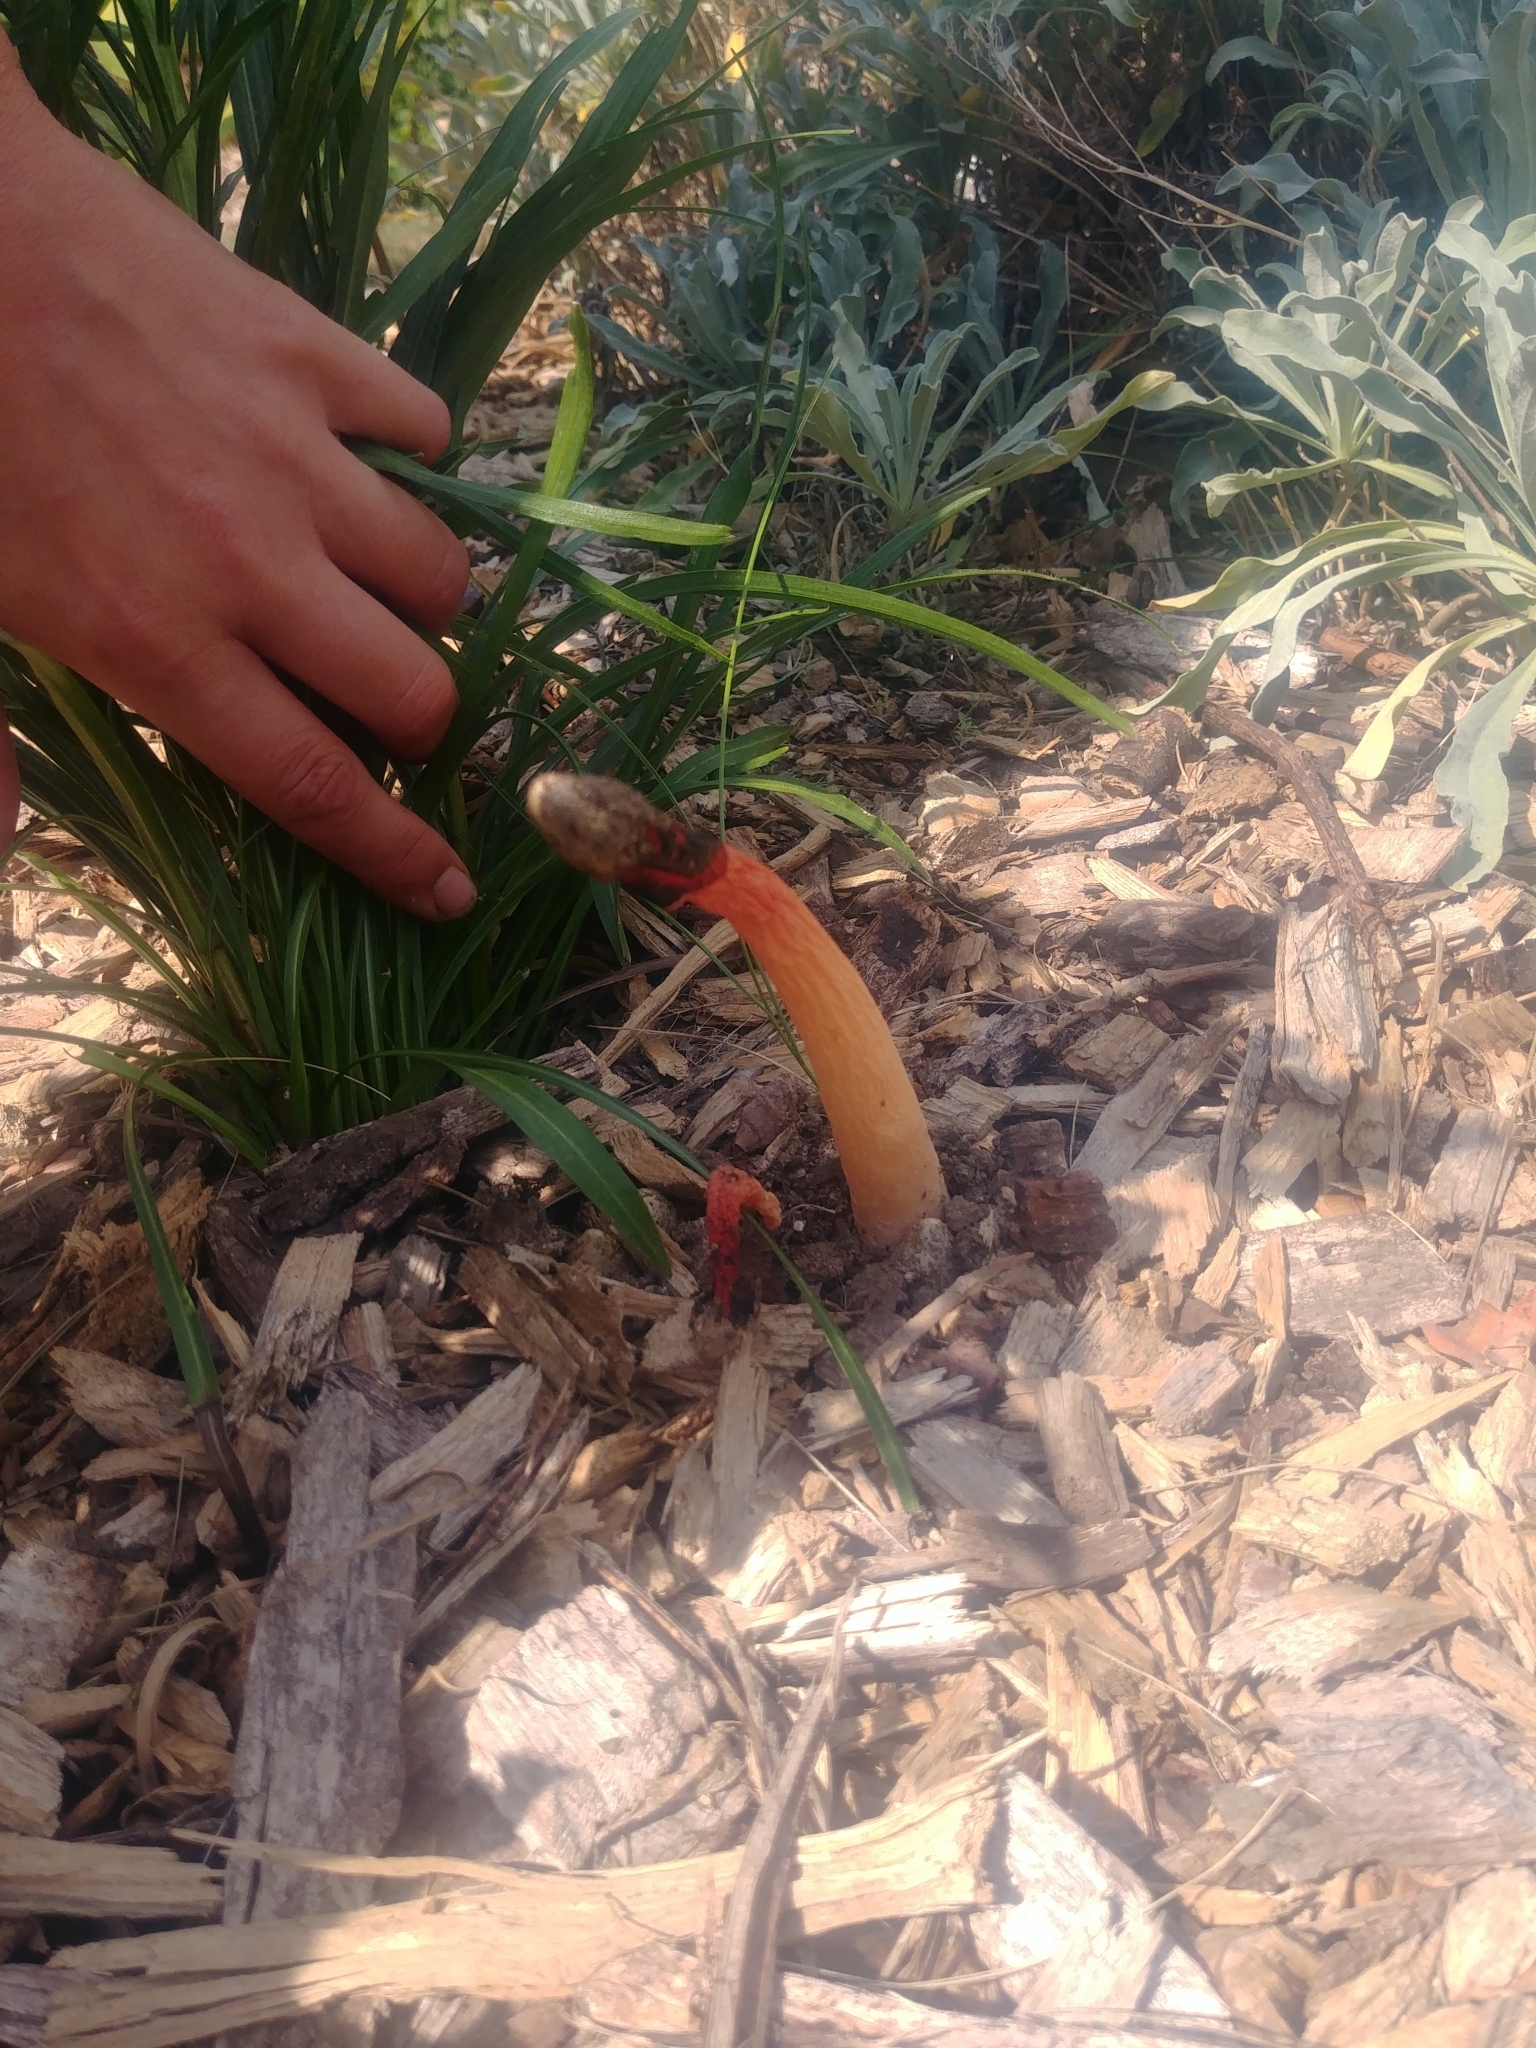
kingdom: Fungi
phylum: Basidiomycota
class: Agaricomycetes
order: Phallales
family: Phallaceae
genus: Phallus
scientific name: Phallus rugulosus
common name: Wrinkly stinkhorn
